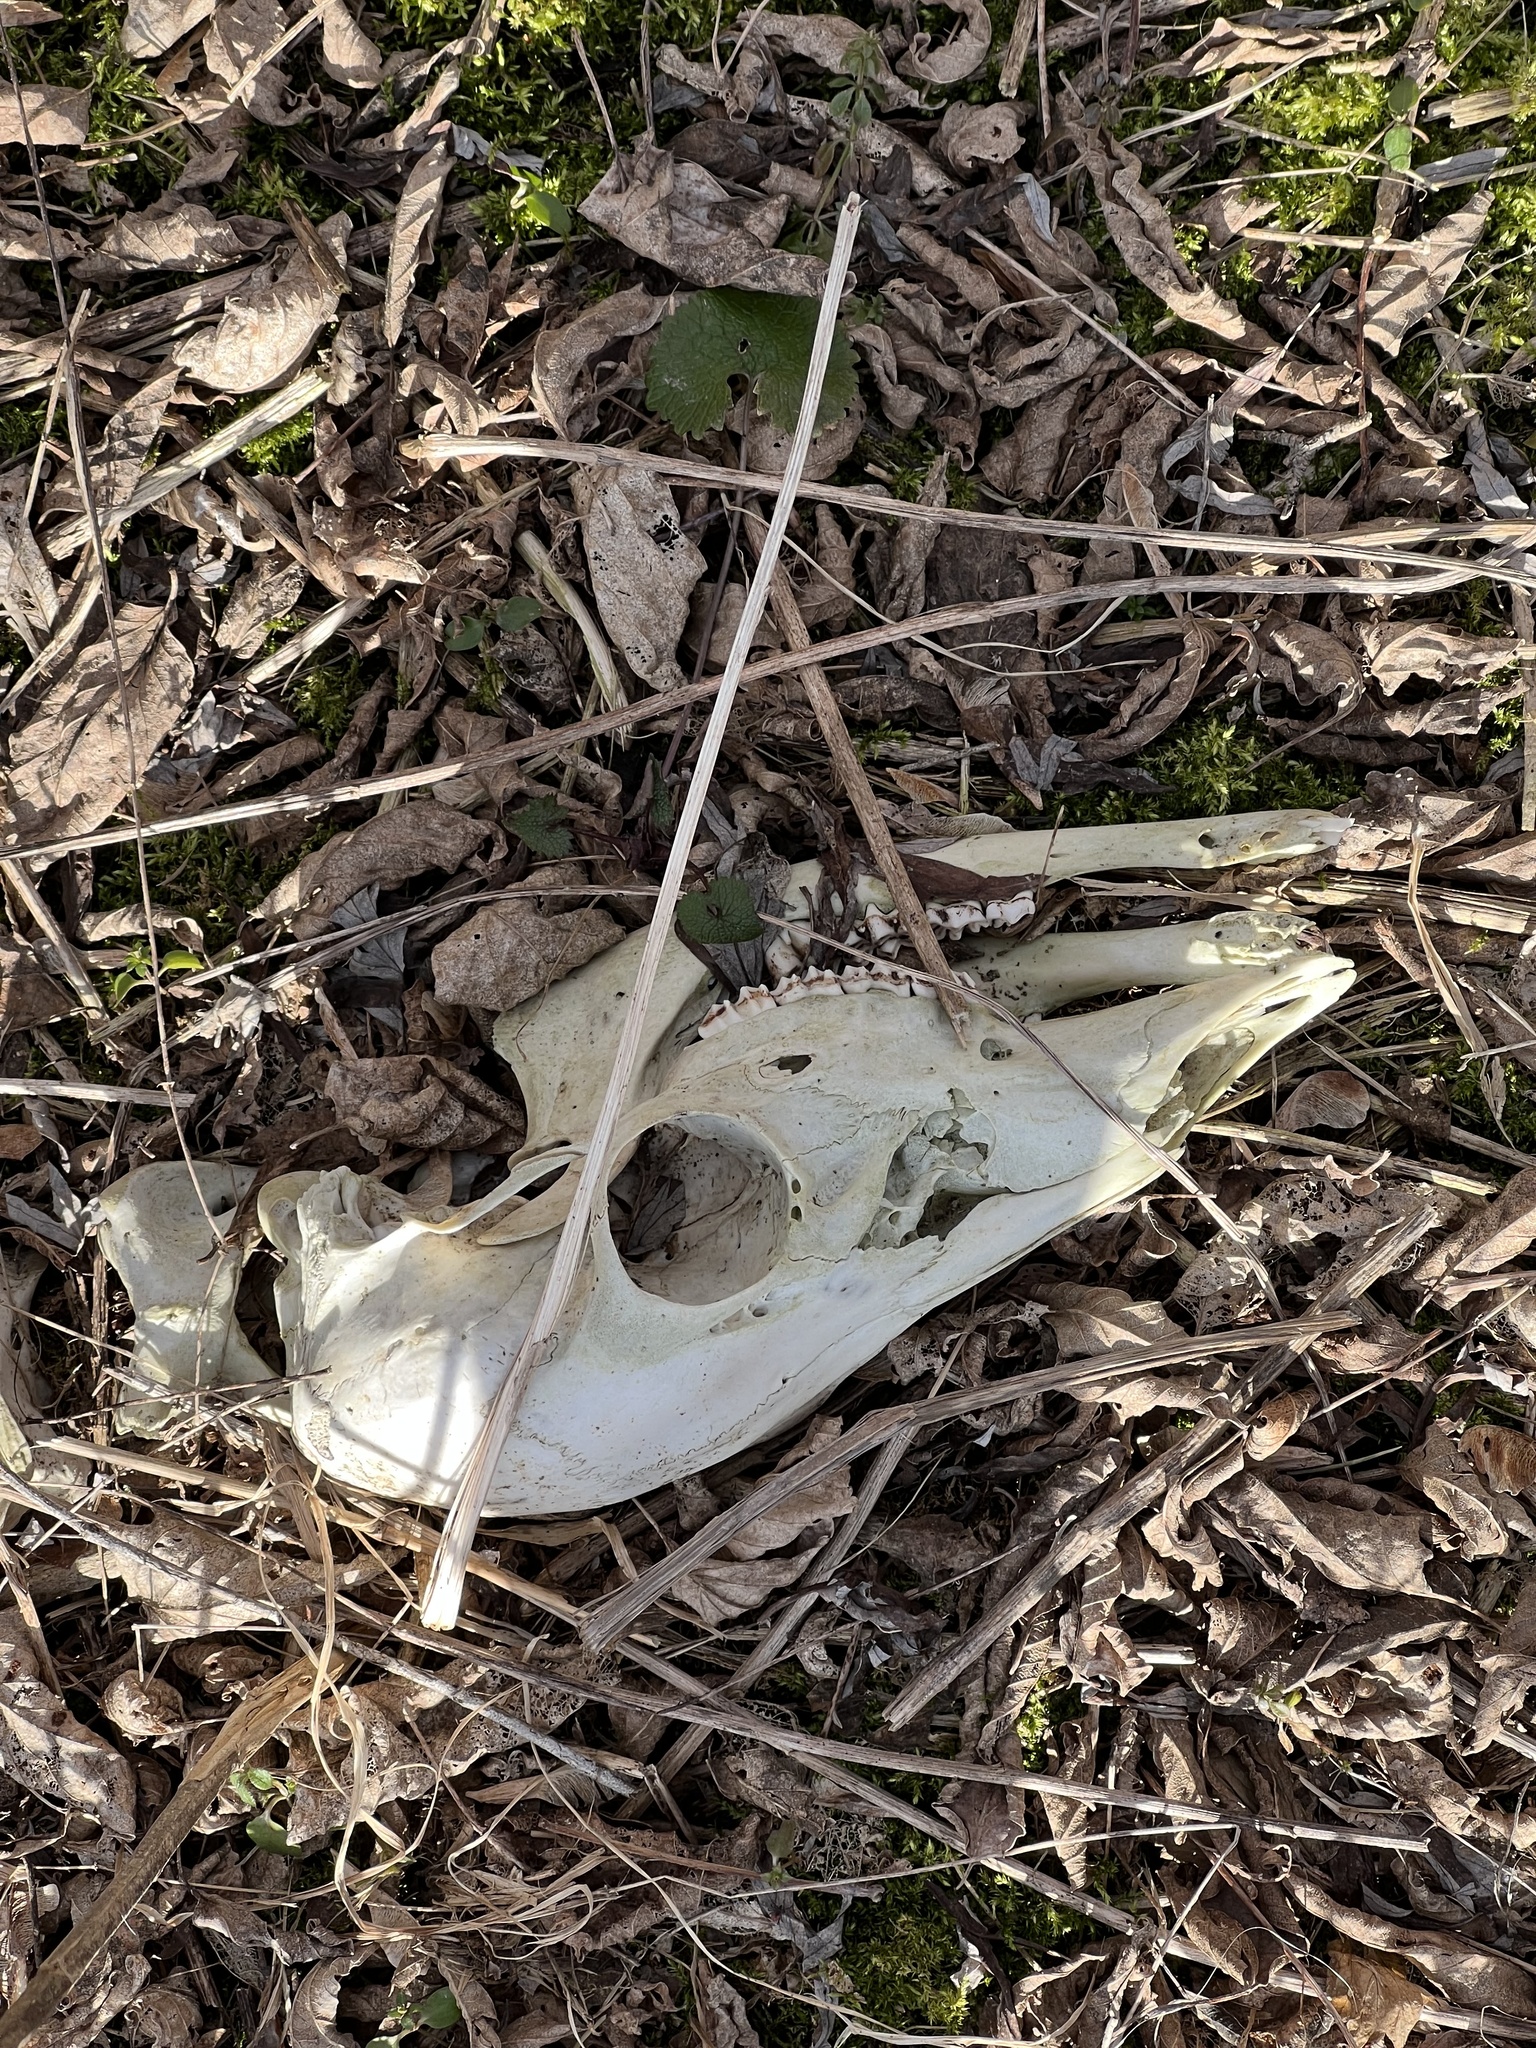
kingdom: Animalia
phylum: Chordata
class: Mammalia
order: Artiodactyla
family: Cervidae
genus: Odocoileus
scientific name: Odocoileus virginianus
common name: White-tailed deer
